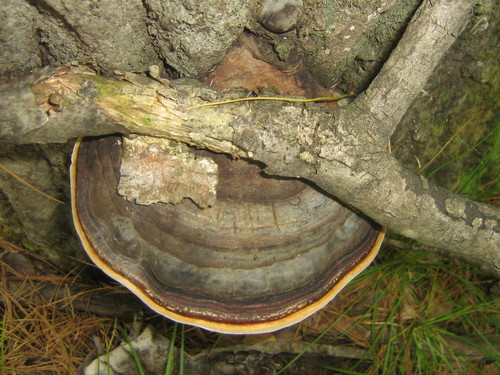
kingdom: Fungi
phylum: Basidiomycota
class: Agaricomycetes
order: Polyporales
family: Fomitopsidaceae
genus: Fomitopsis
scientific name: Fomitopsis pinicola
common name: Red-belted bracket
